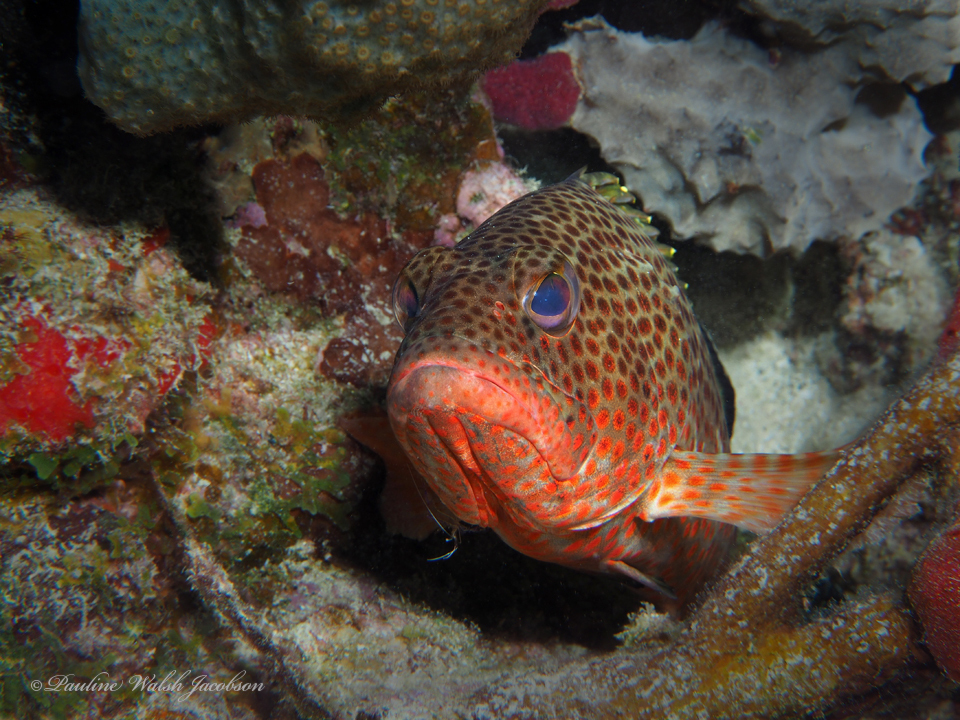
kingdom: Animalia
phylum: Chordata
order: Perciformes
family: Serranidae
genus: Epinephelus
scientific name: Epinephelus guttatus
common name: Red hind
